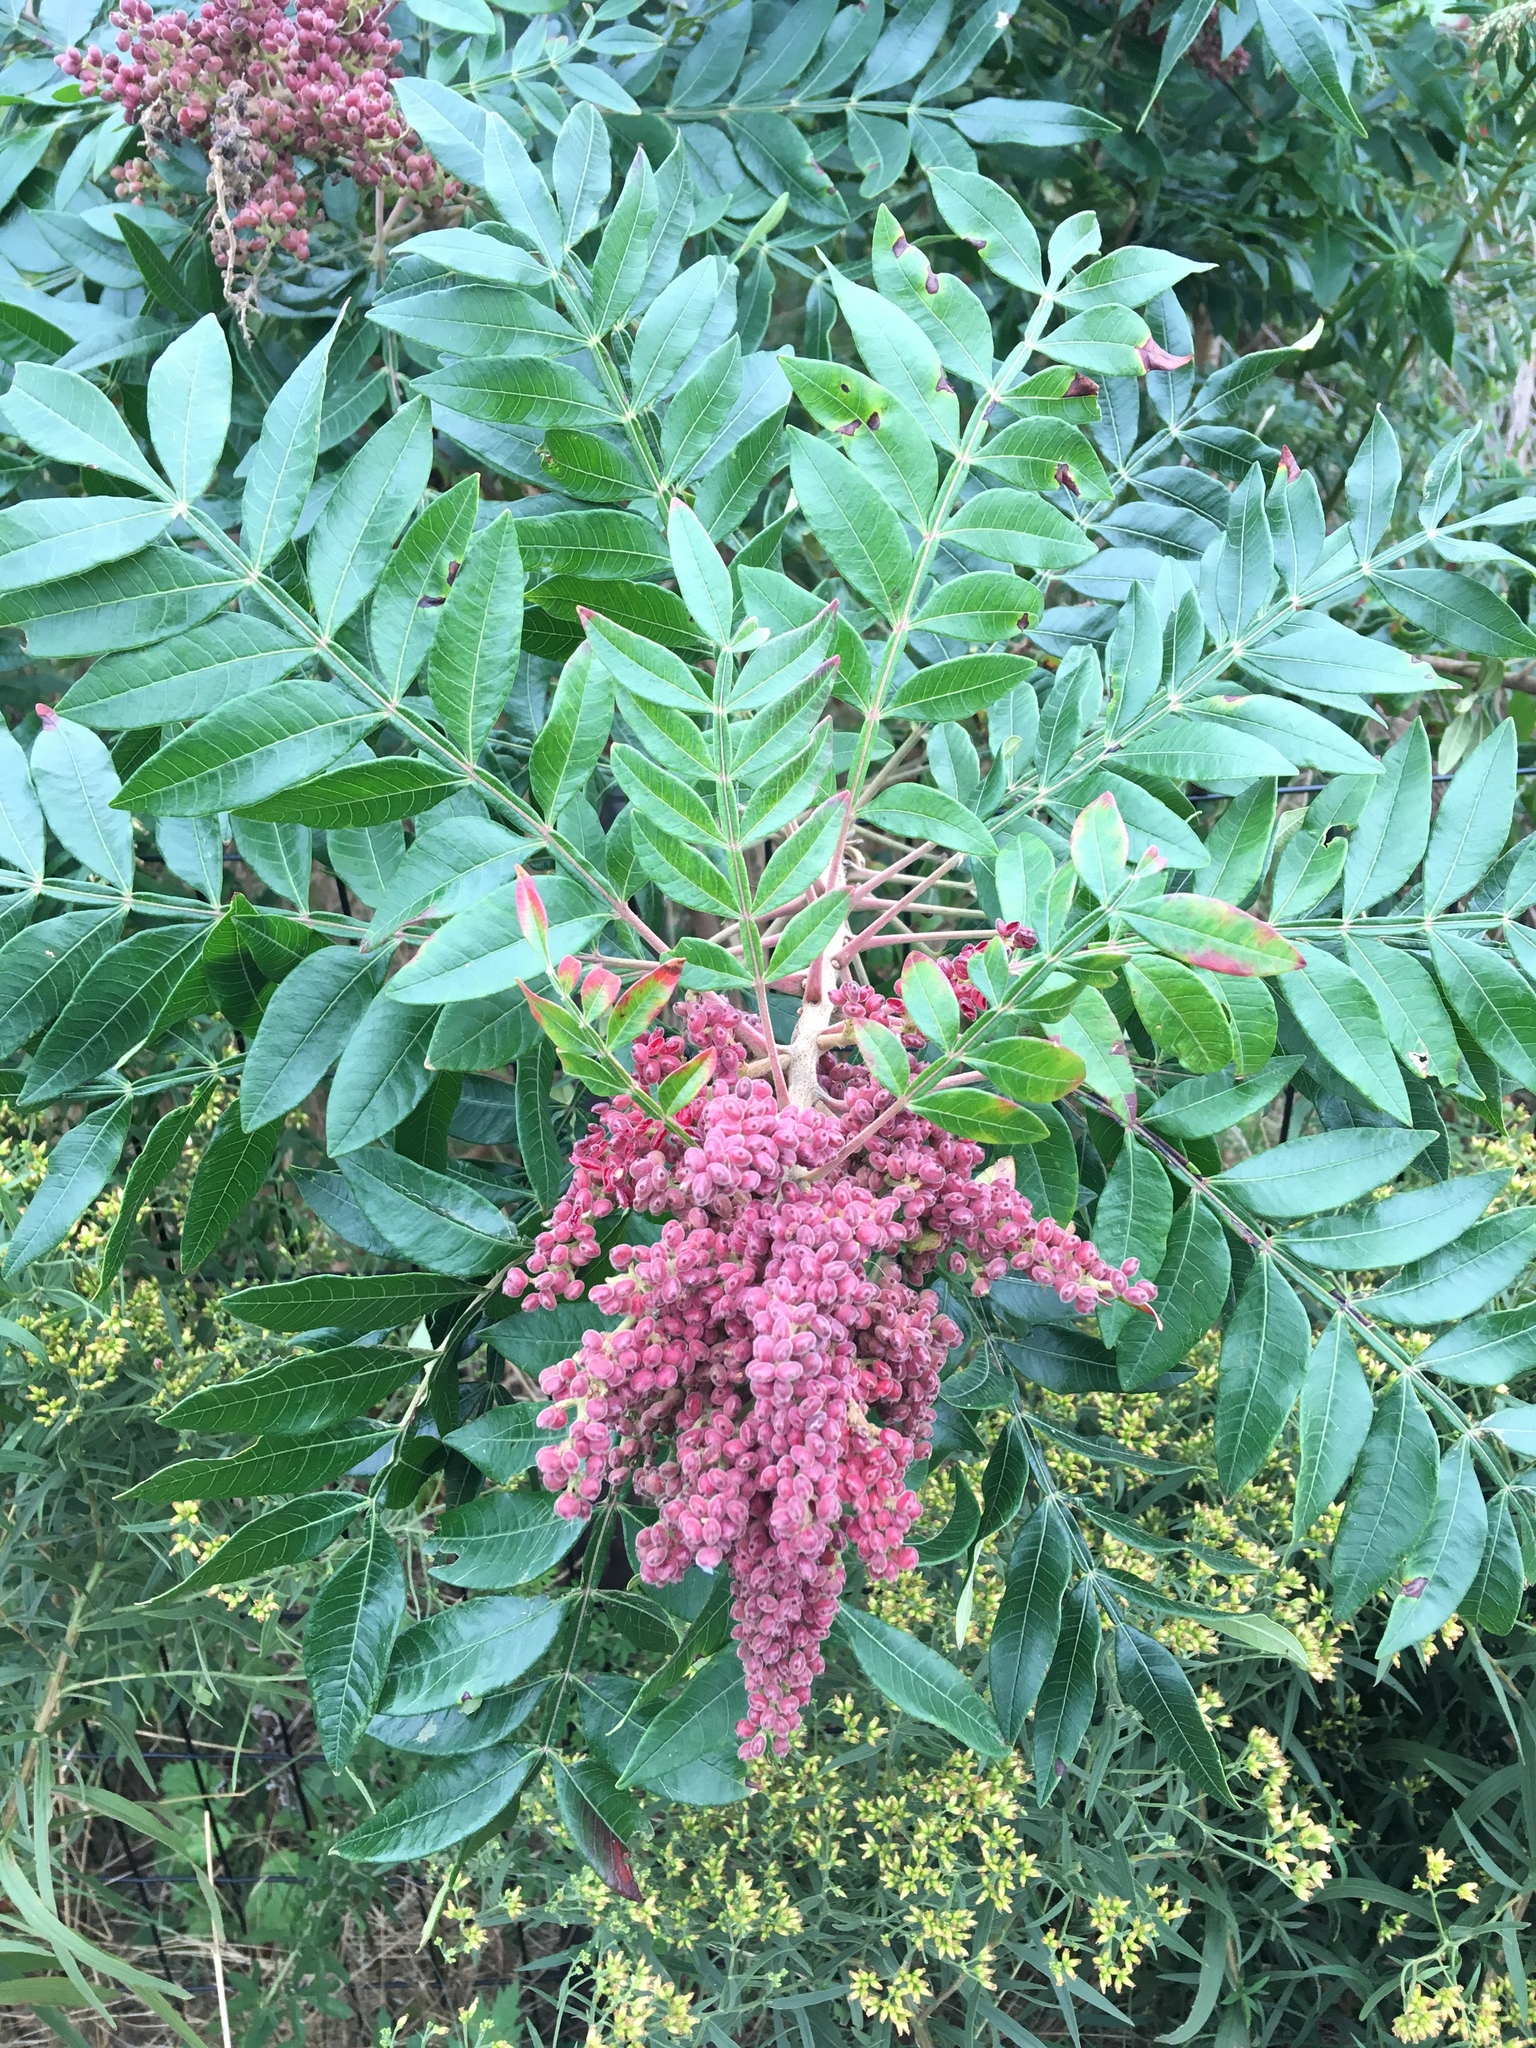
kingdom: Plantae
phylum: Tracheophyta
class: Magnoliopsida
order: Sapindales
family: Anacardiaceae
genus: Rhus
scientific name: Rhus copallina
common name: Shining sumac
